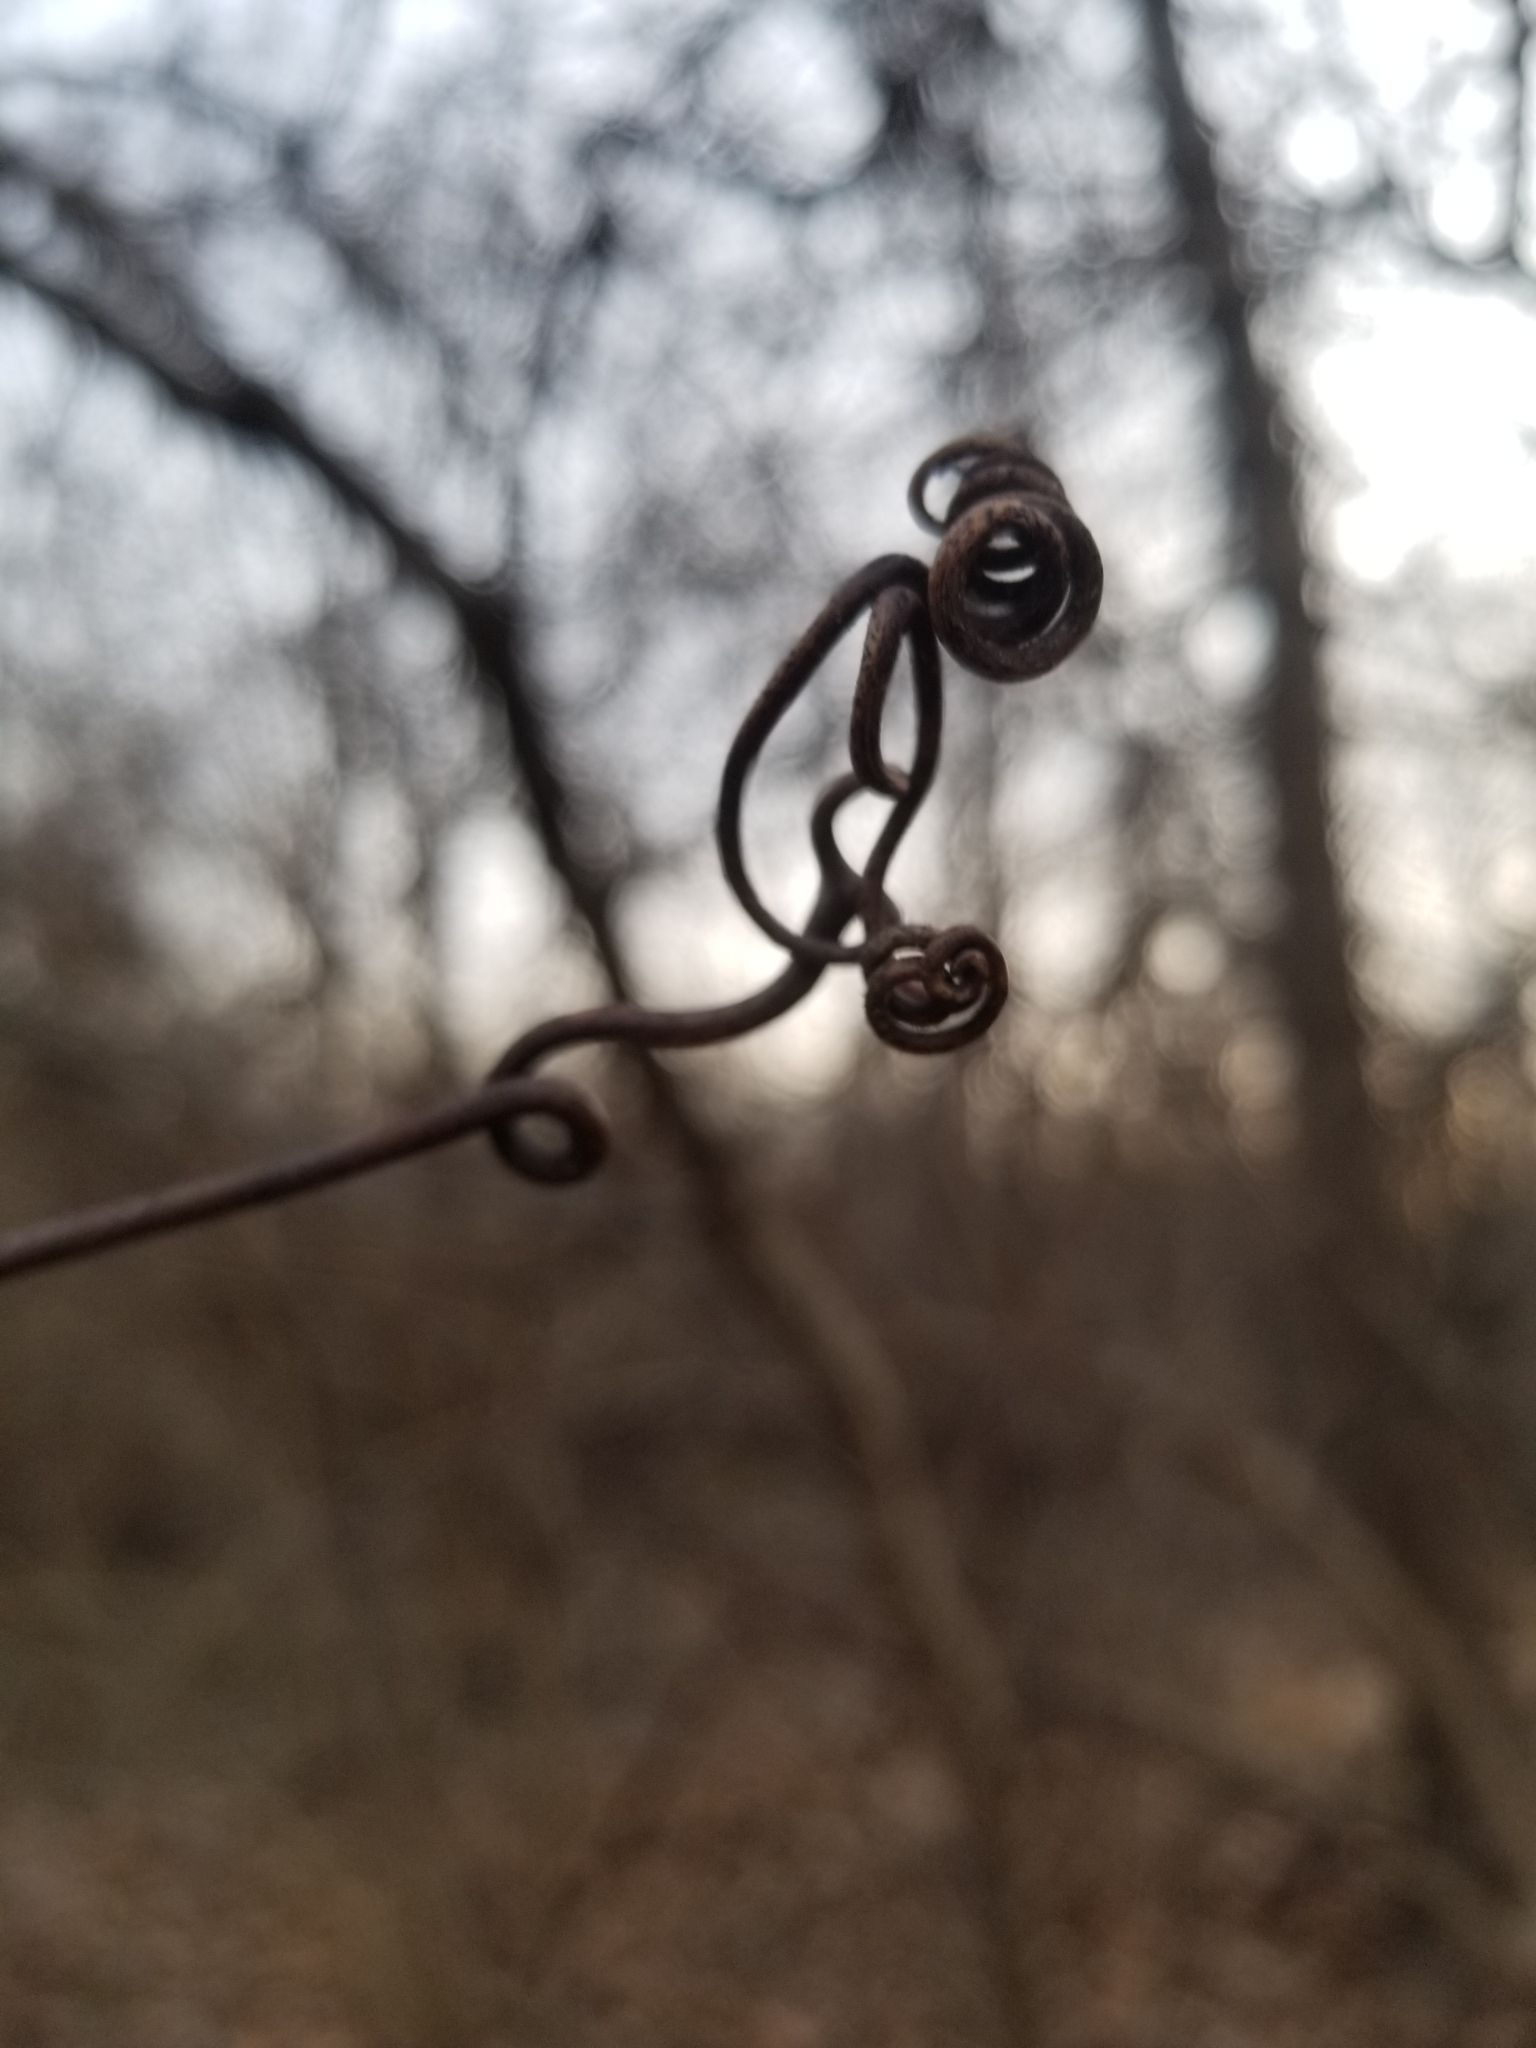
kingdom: Plantae
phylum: Tracheophyta
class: Magnoliopsida
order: Vitales
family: Vitaceae
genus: Vitis
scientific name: Vitis
